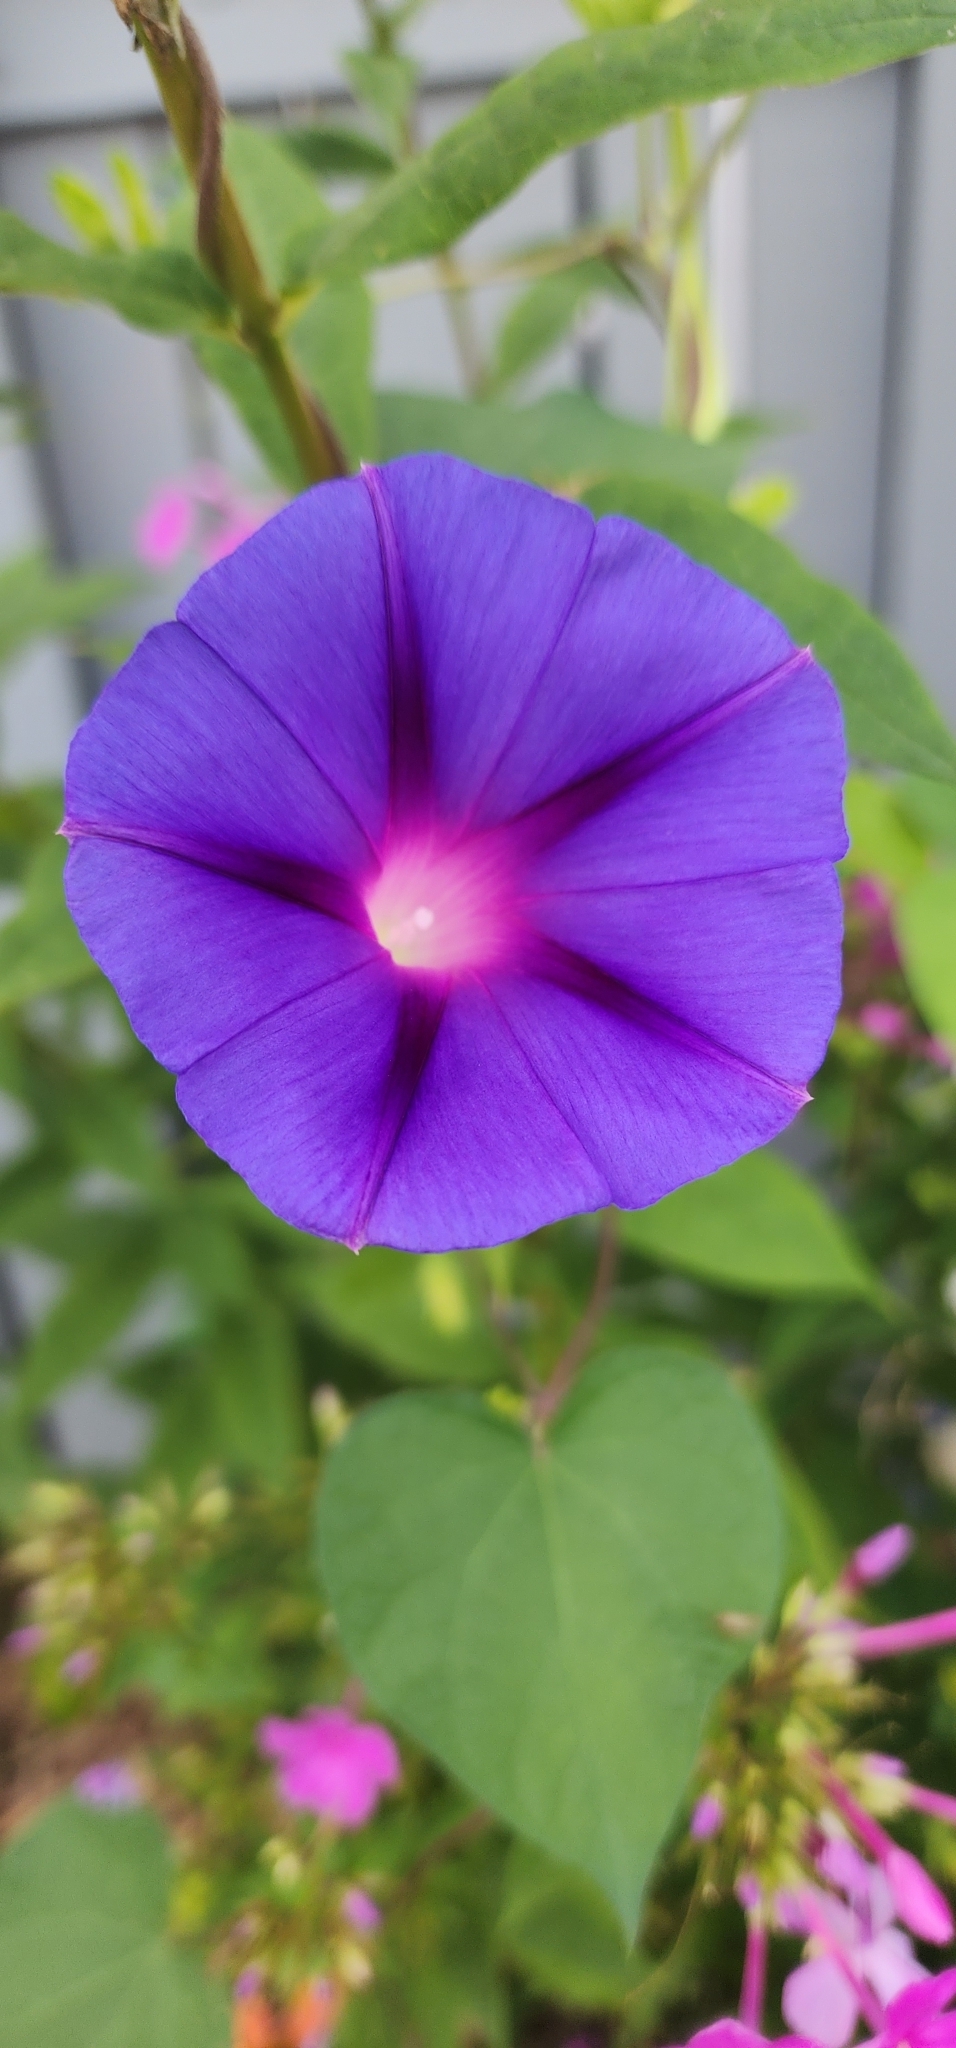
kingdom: Plantae
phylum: Tracheophyta
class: Magnoliopsida
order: Solanales
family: Convolvulaceae
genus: Ipomoea
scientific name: Ipomoea purpurea
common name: Common morning-glory
